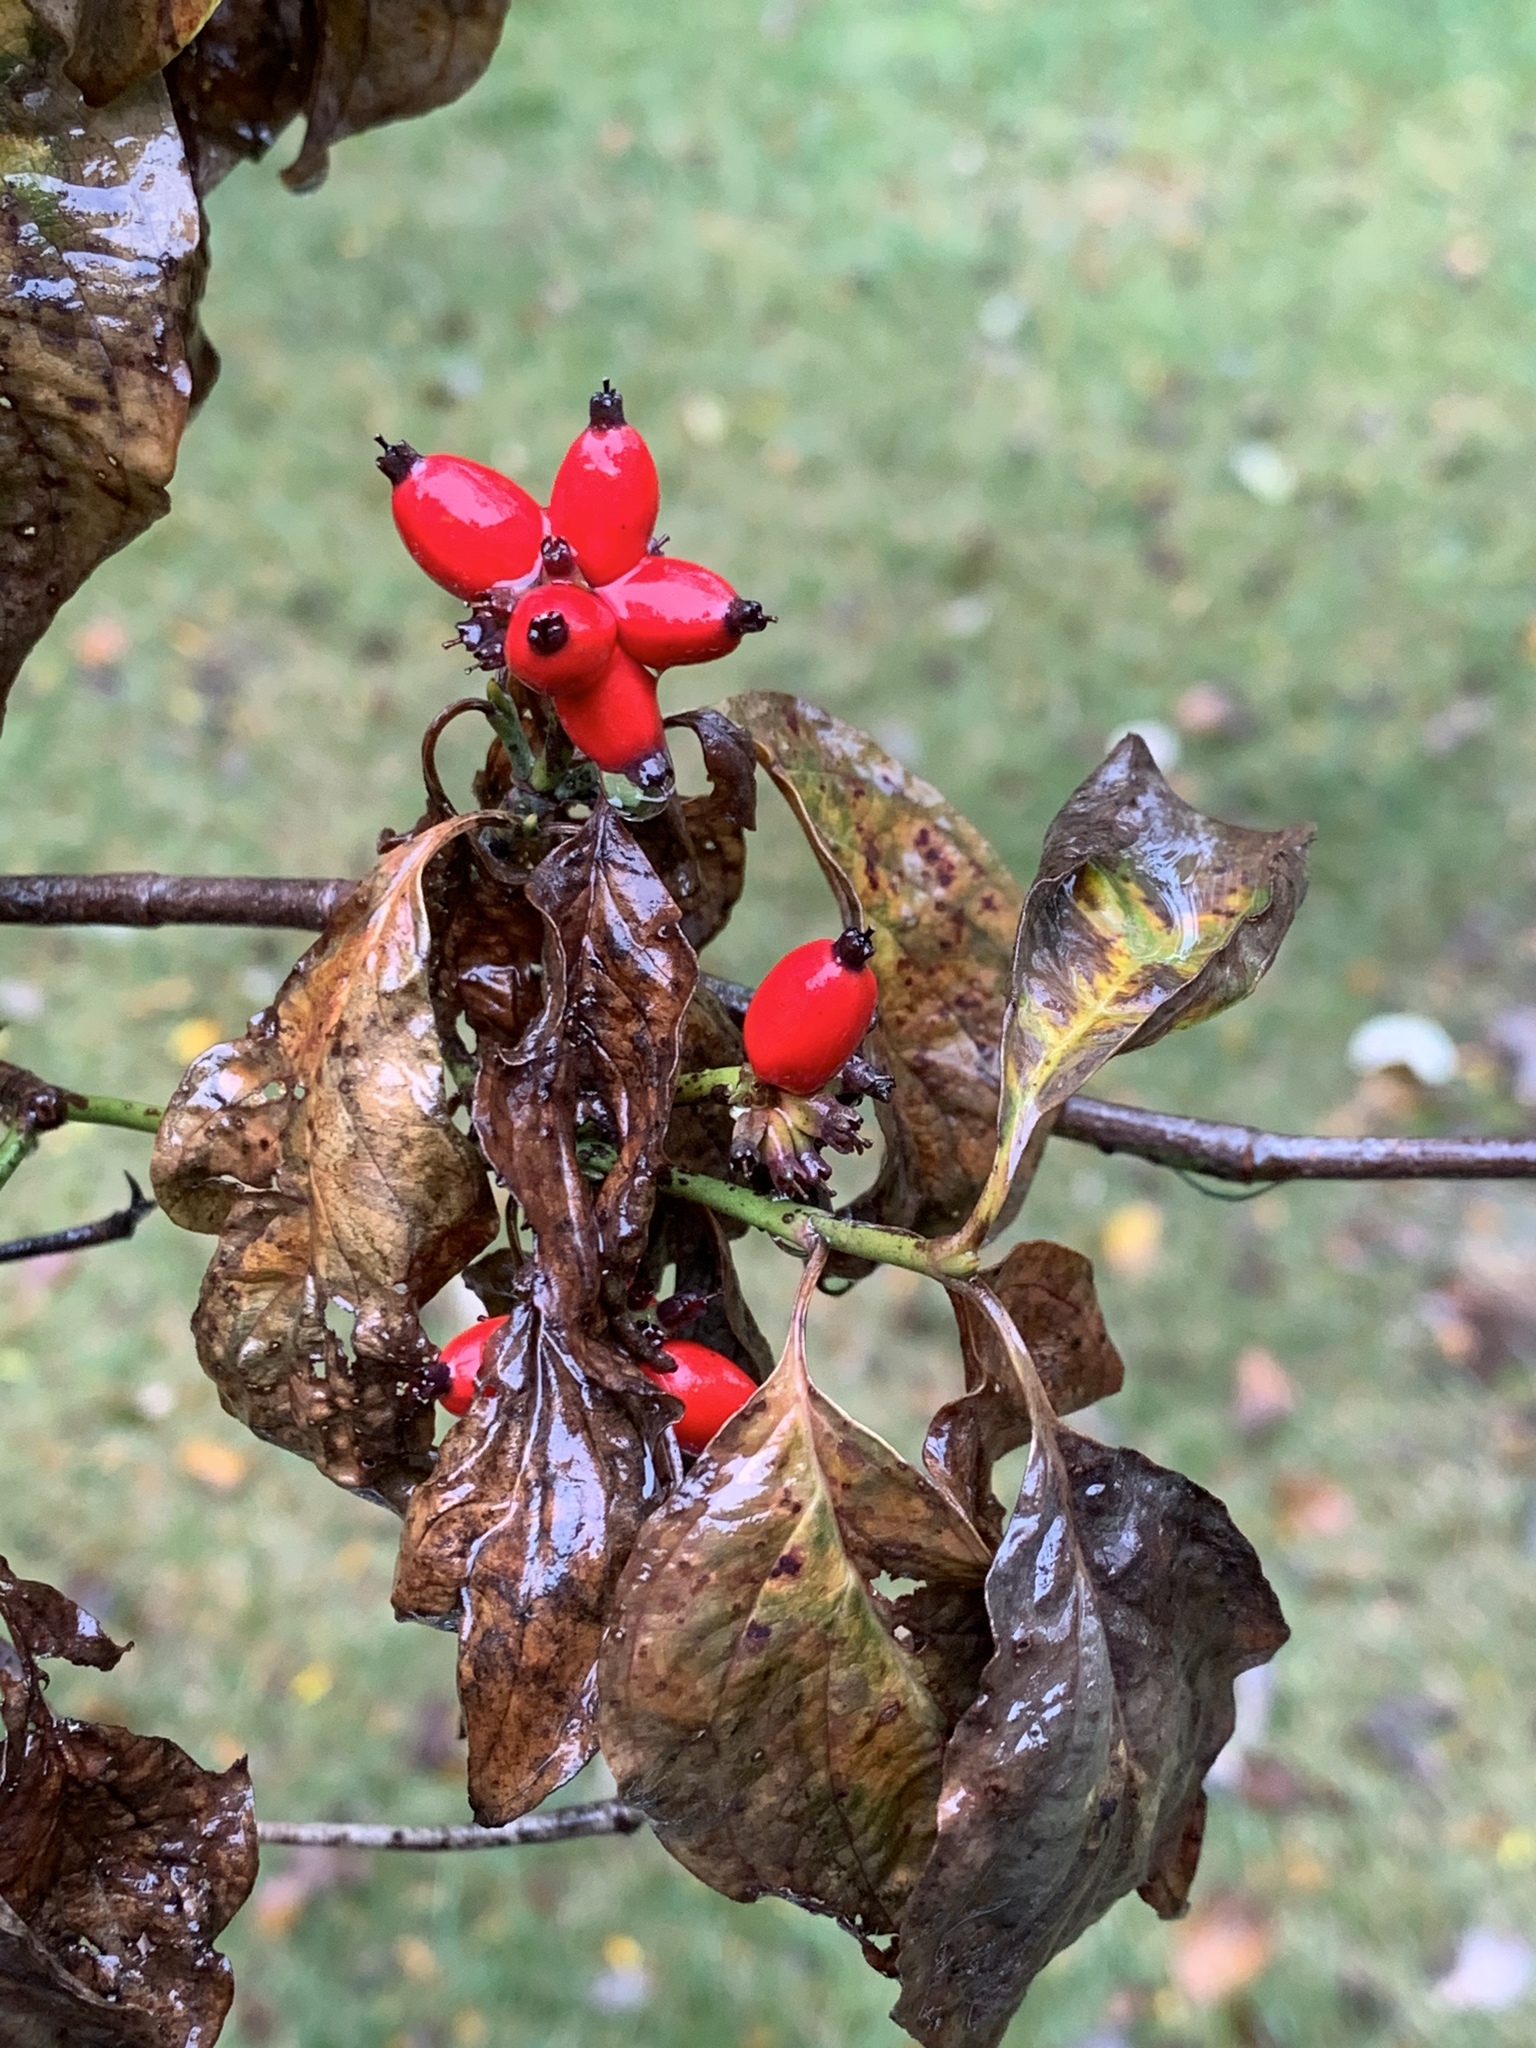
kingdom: Plantae
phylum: Tracheophyta
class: Magnoliopsida
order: Cornales
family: Cornaceae
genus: Cornus
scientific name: Cornus florida
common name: Flowering dogwood
